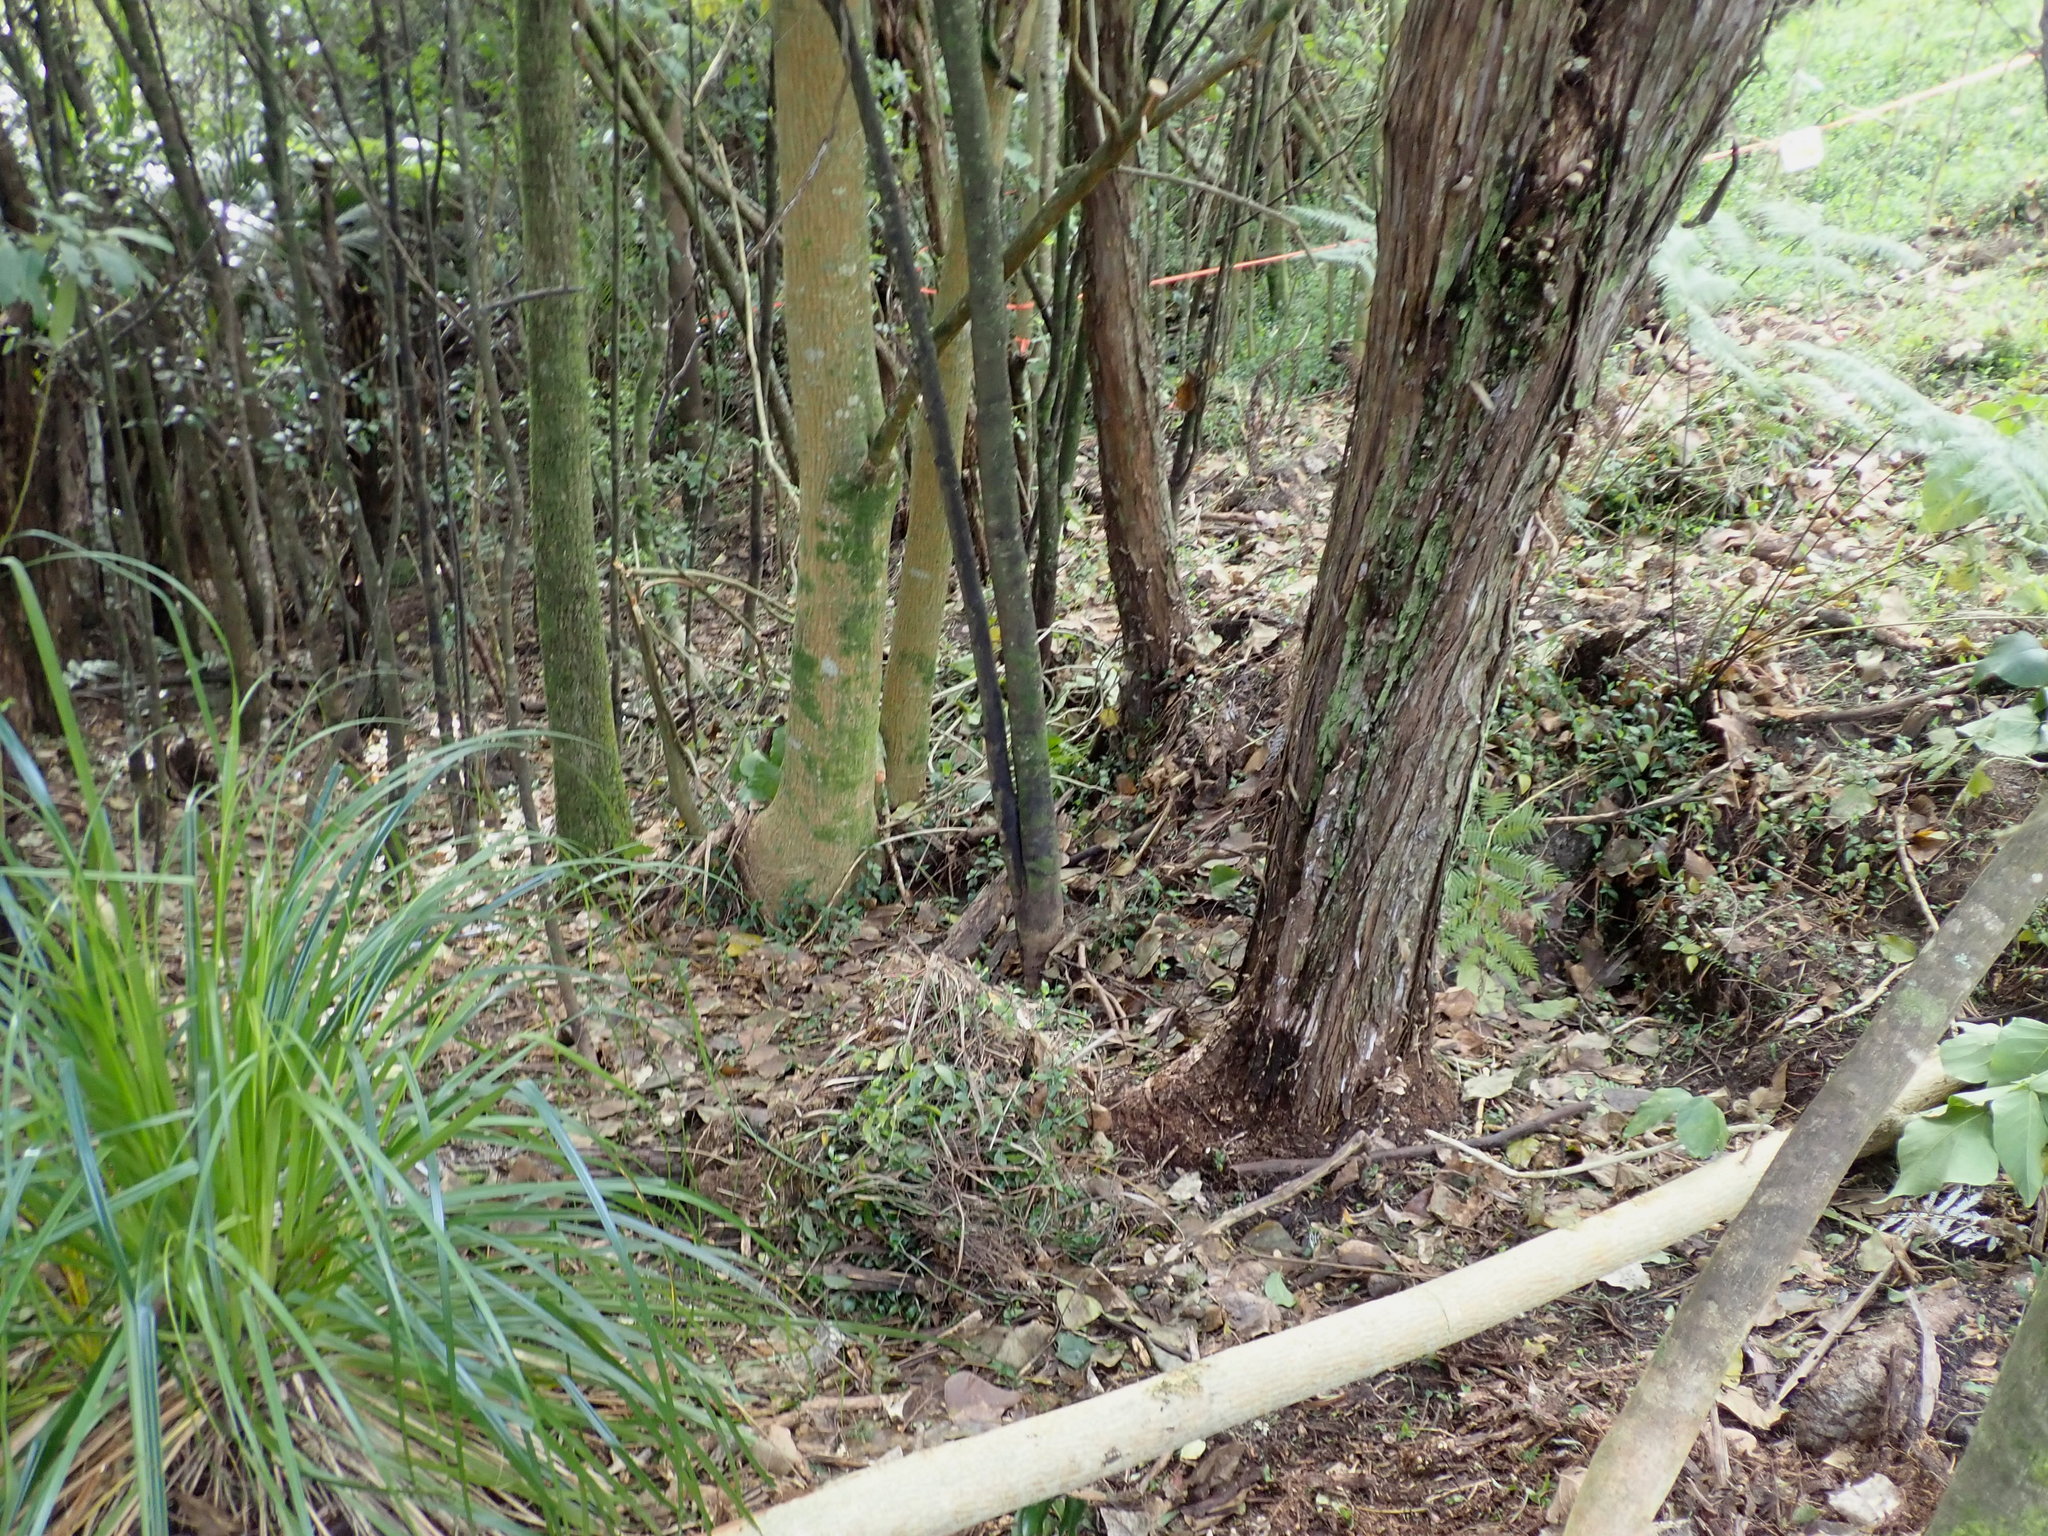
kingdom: Plantae
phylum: Tracheophyta
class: Magnoliopsida
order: Fabales
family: Fabaceae
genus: Erythrina
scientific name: Erythrina sykesii
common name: Coraltree
